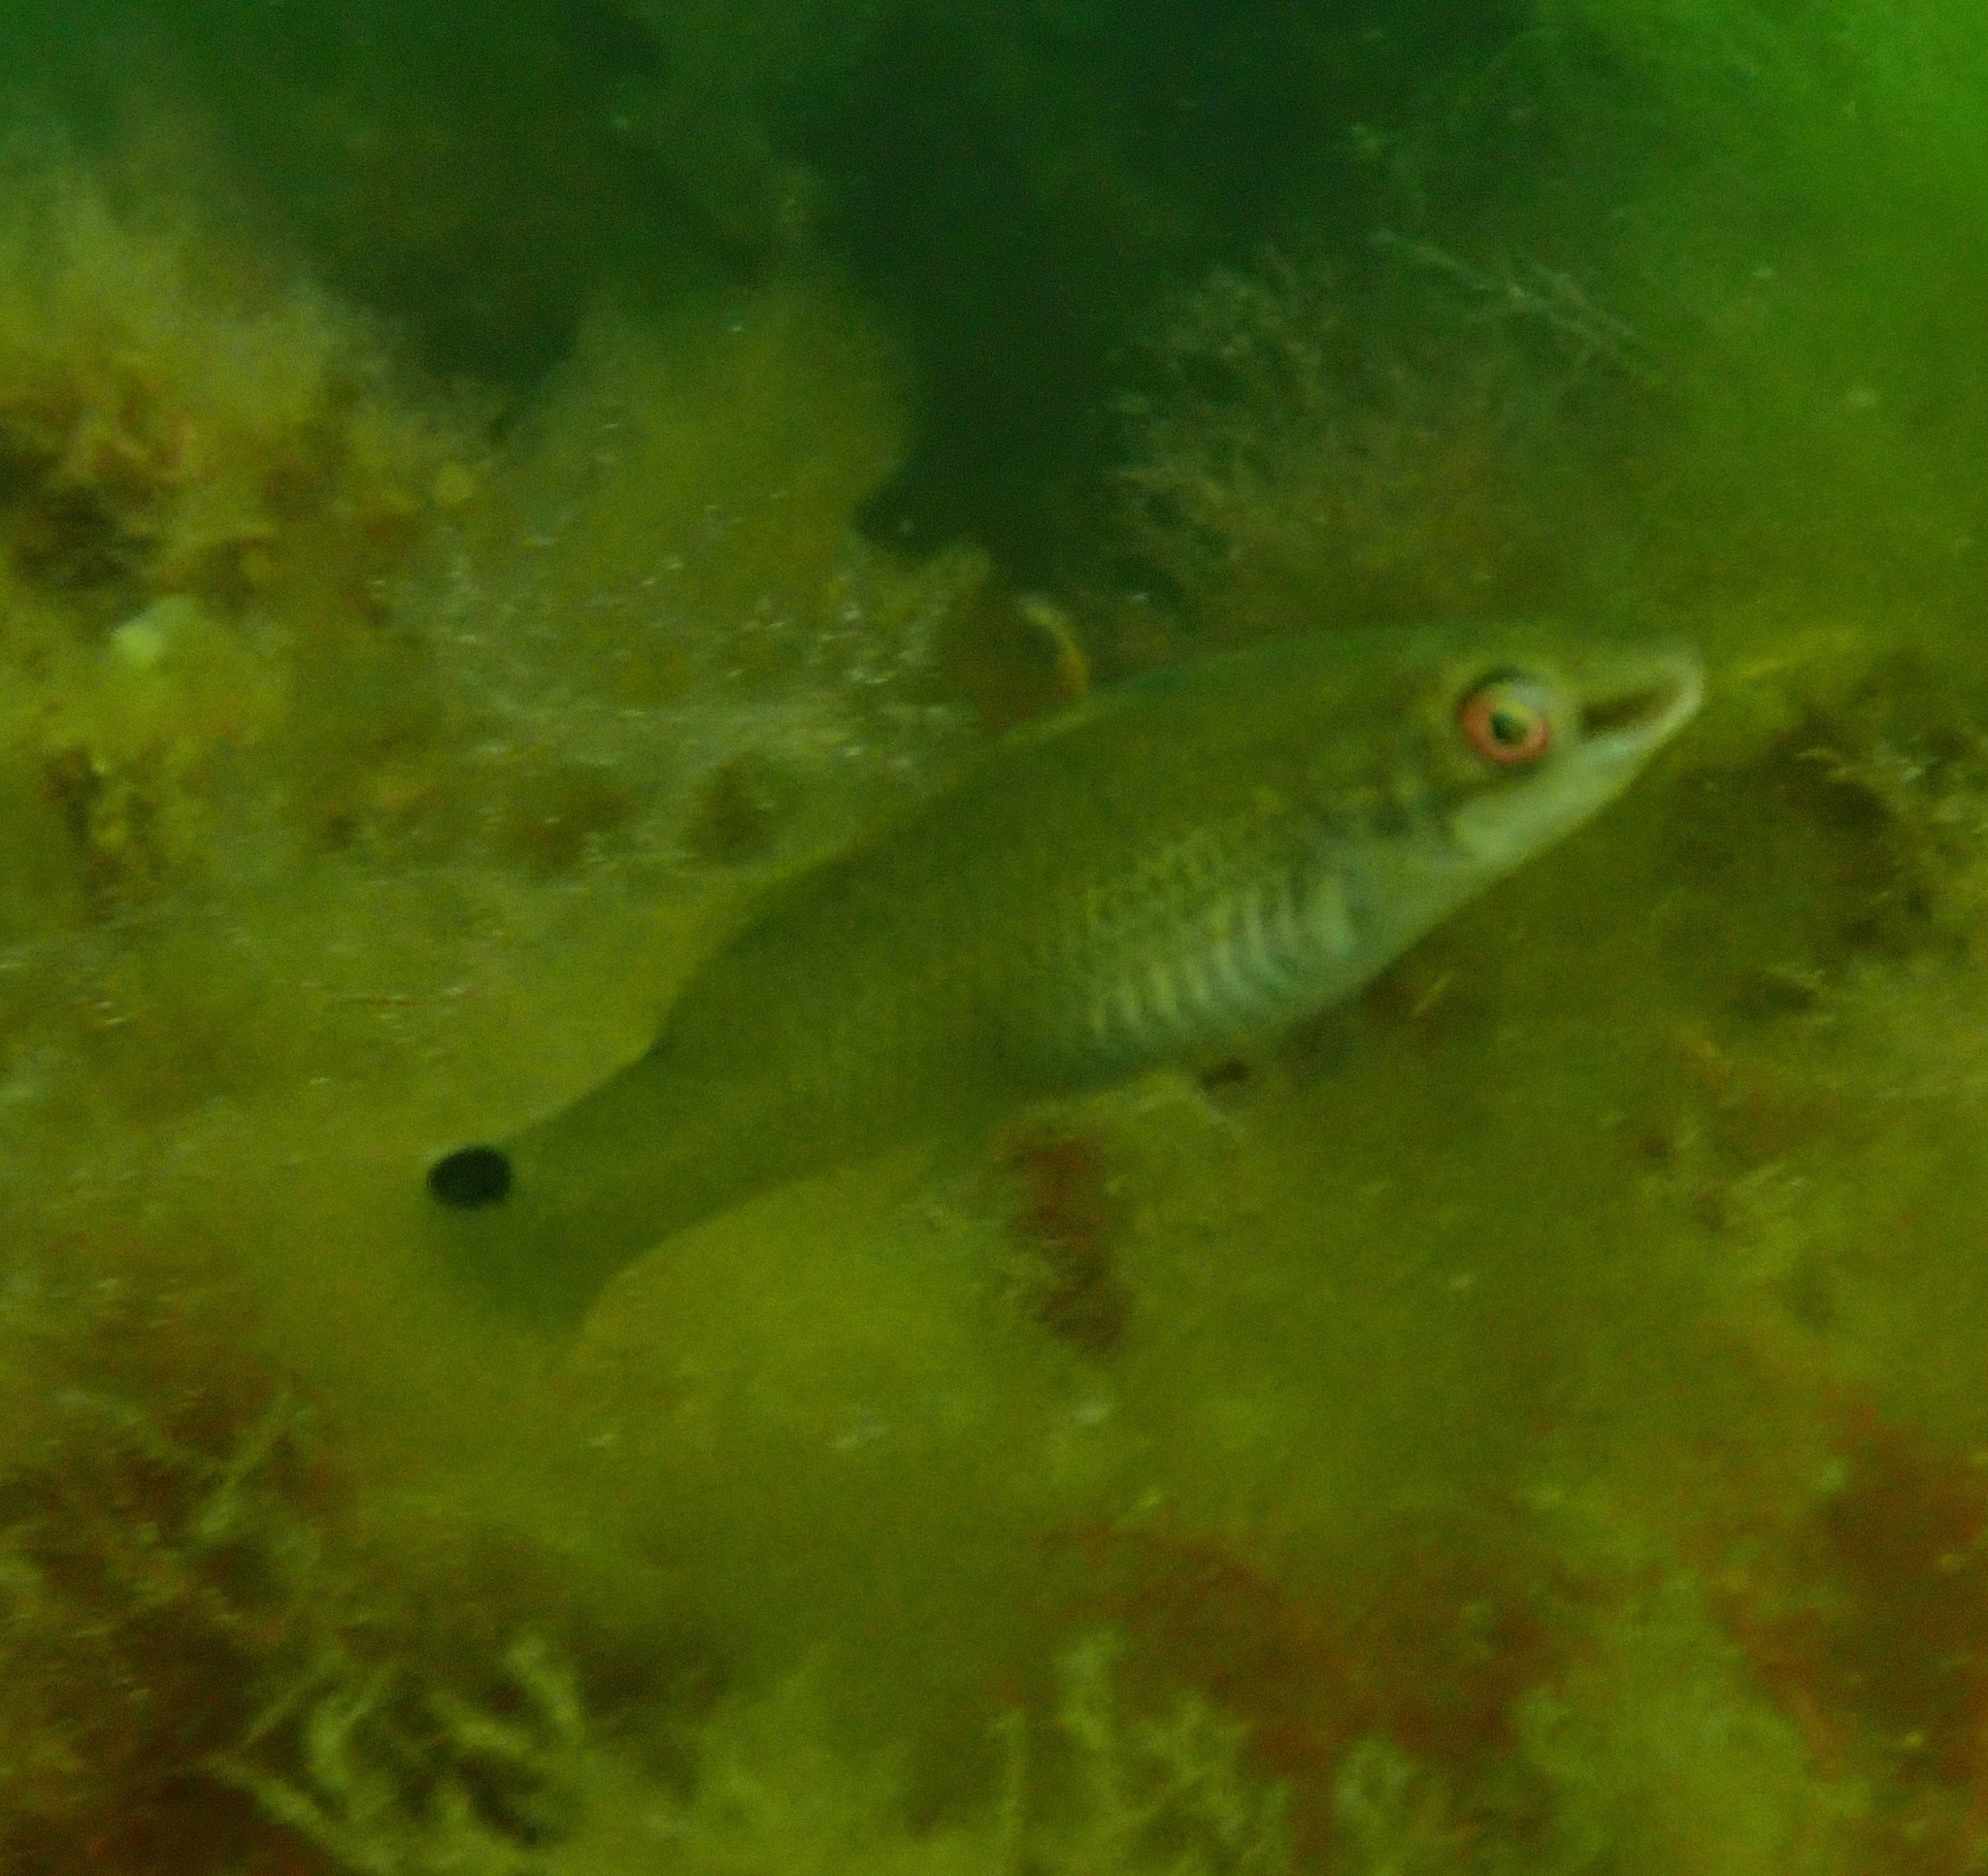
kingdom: Animalia
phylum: Chordata
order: Perciformes
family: Labridae
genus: Ctenolabrus
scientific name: Ctenolabrus rupestris
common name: Goldsinny
